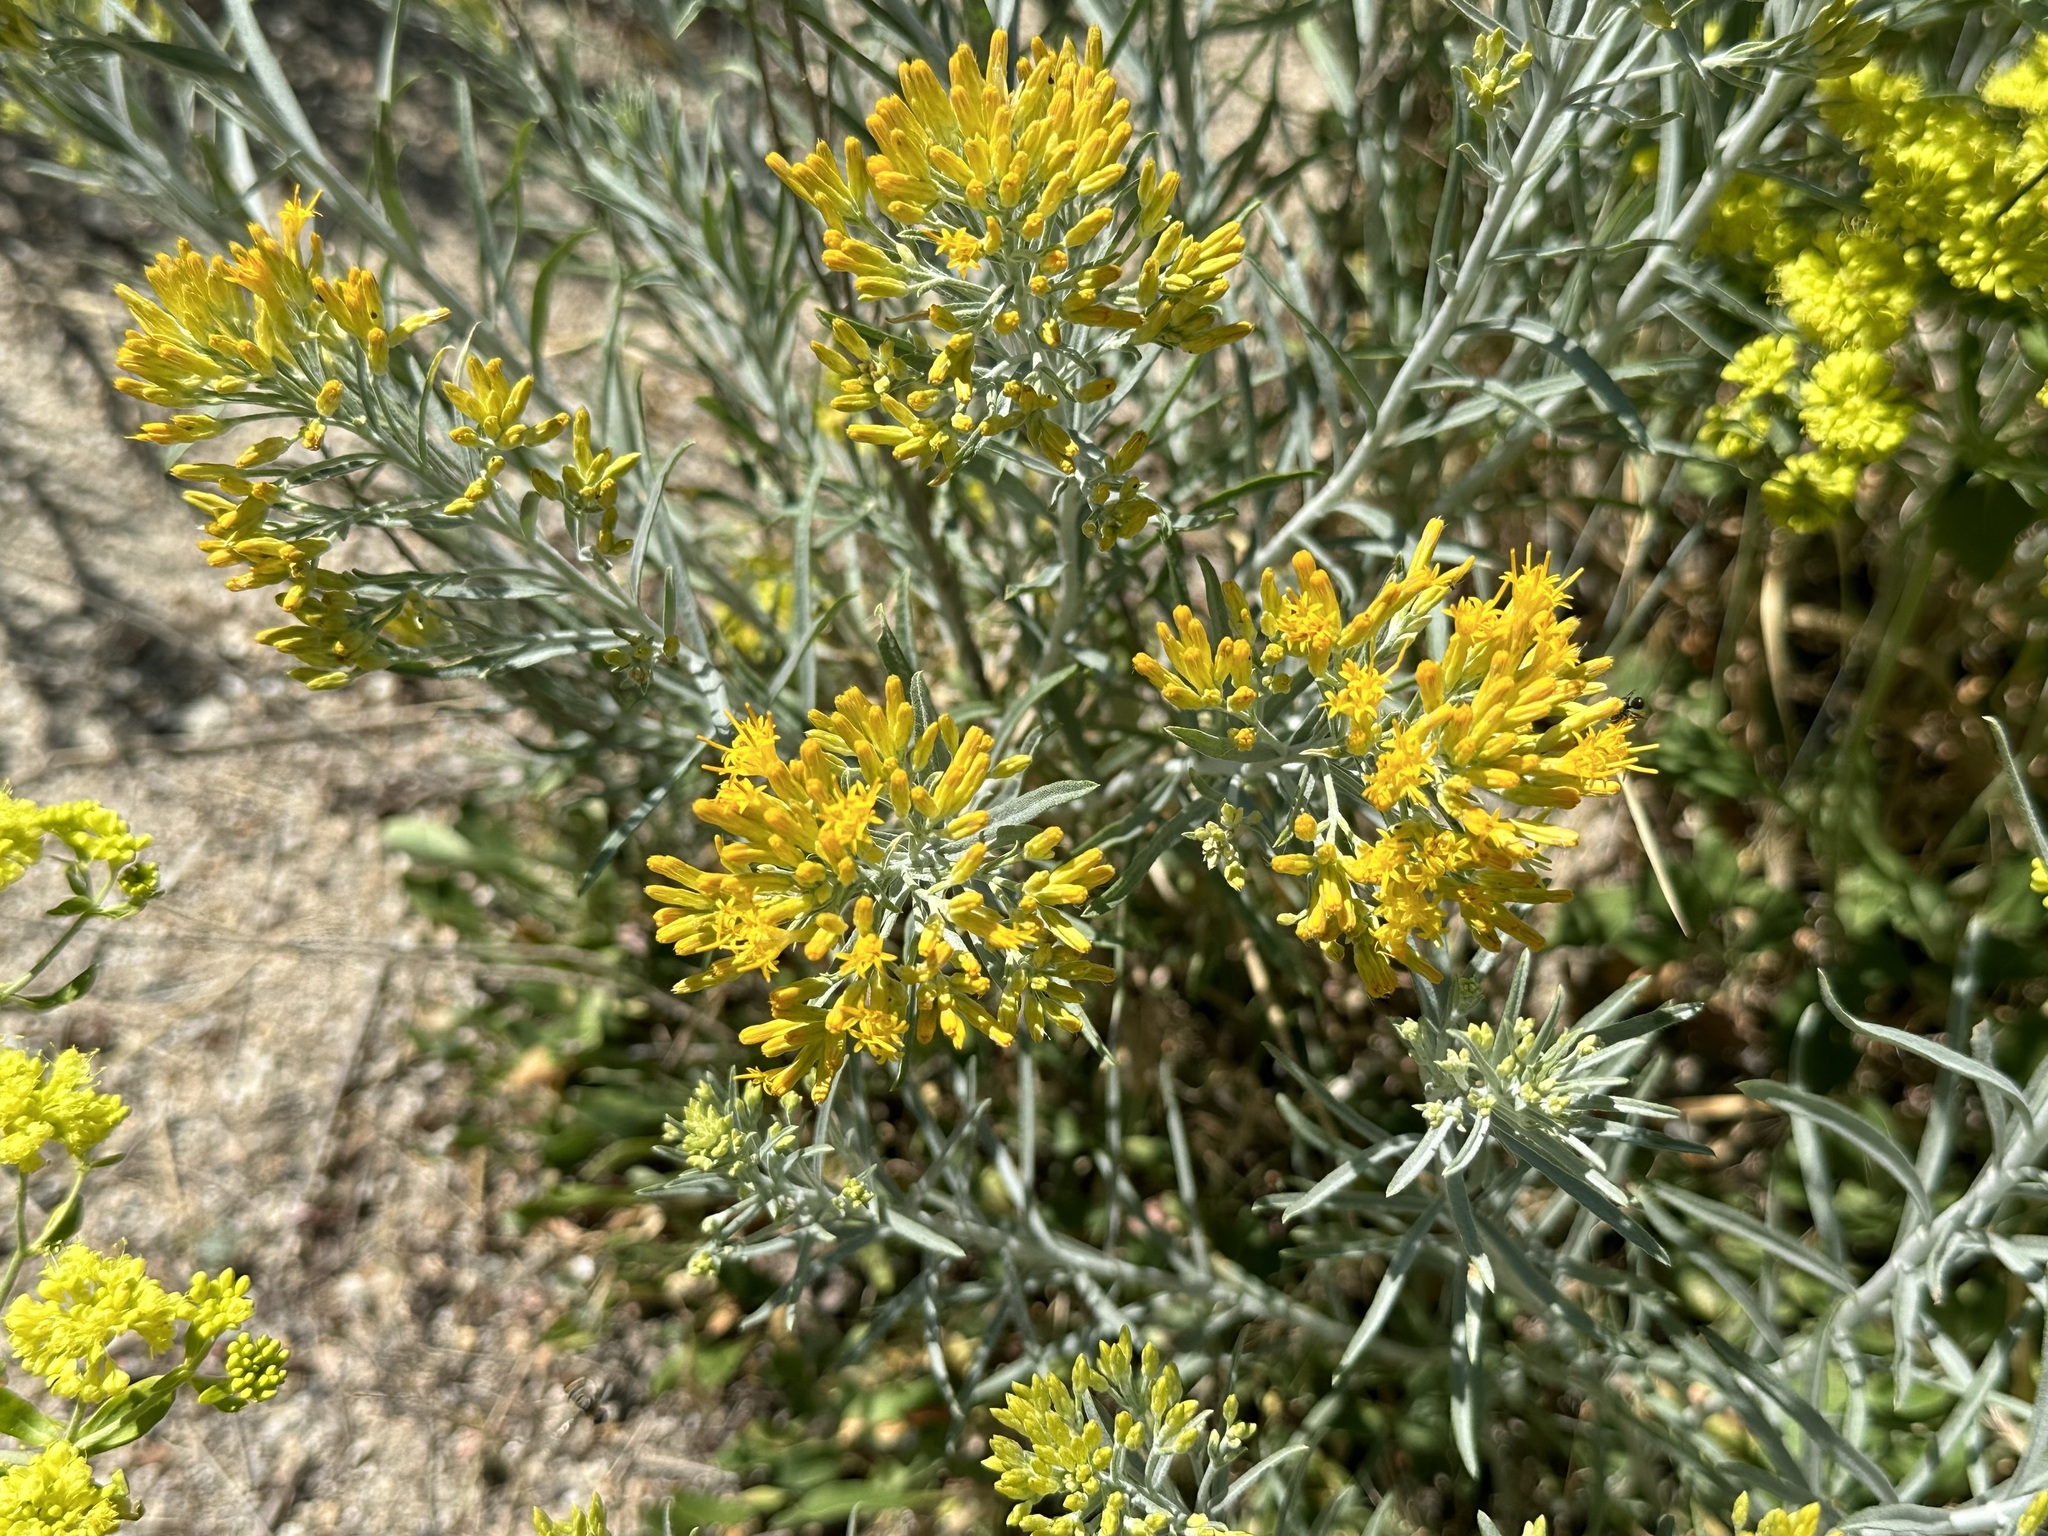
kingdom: Plantae
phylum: Tracheophyta
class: Magnoliopsida
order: Asterales
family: Asteraceae
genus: Ericameria
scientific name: Ericameria nauseosa
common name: Rubber rabbitbrush
